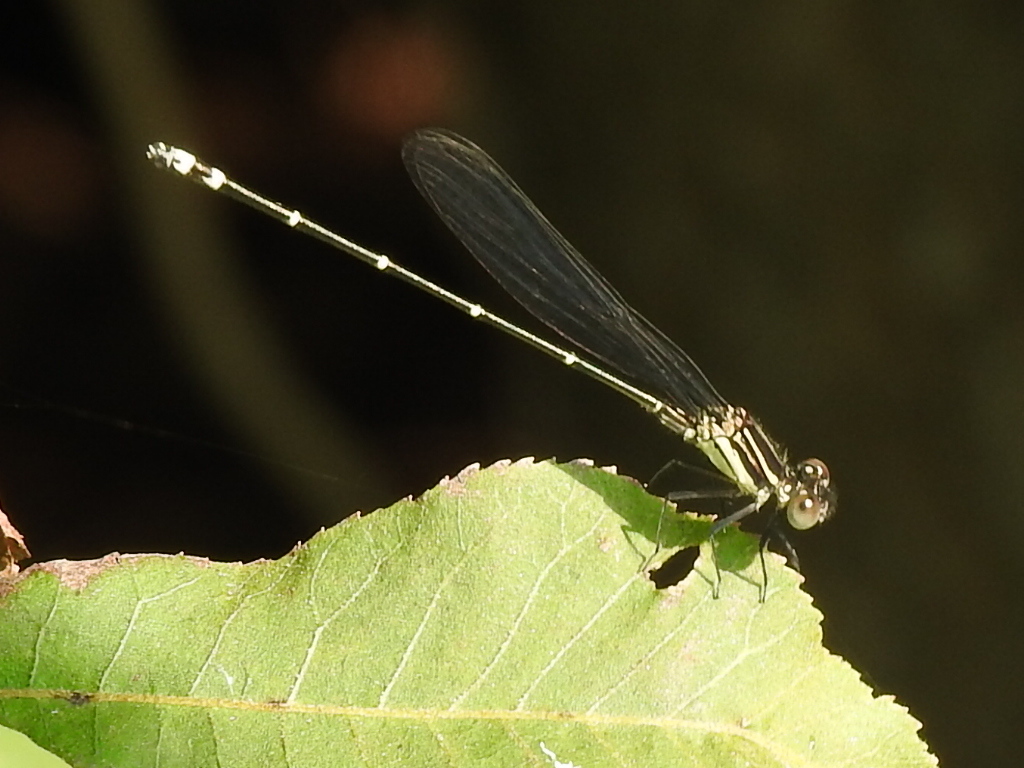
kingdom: Animalia
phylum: Arthropoda
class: Insecta
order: Odonata
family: Coenagrionidae
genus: Argia
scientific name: Argia translata
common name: Dusky dancer
